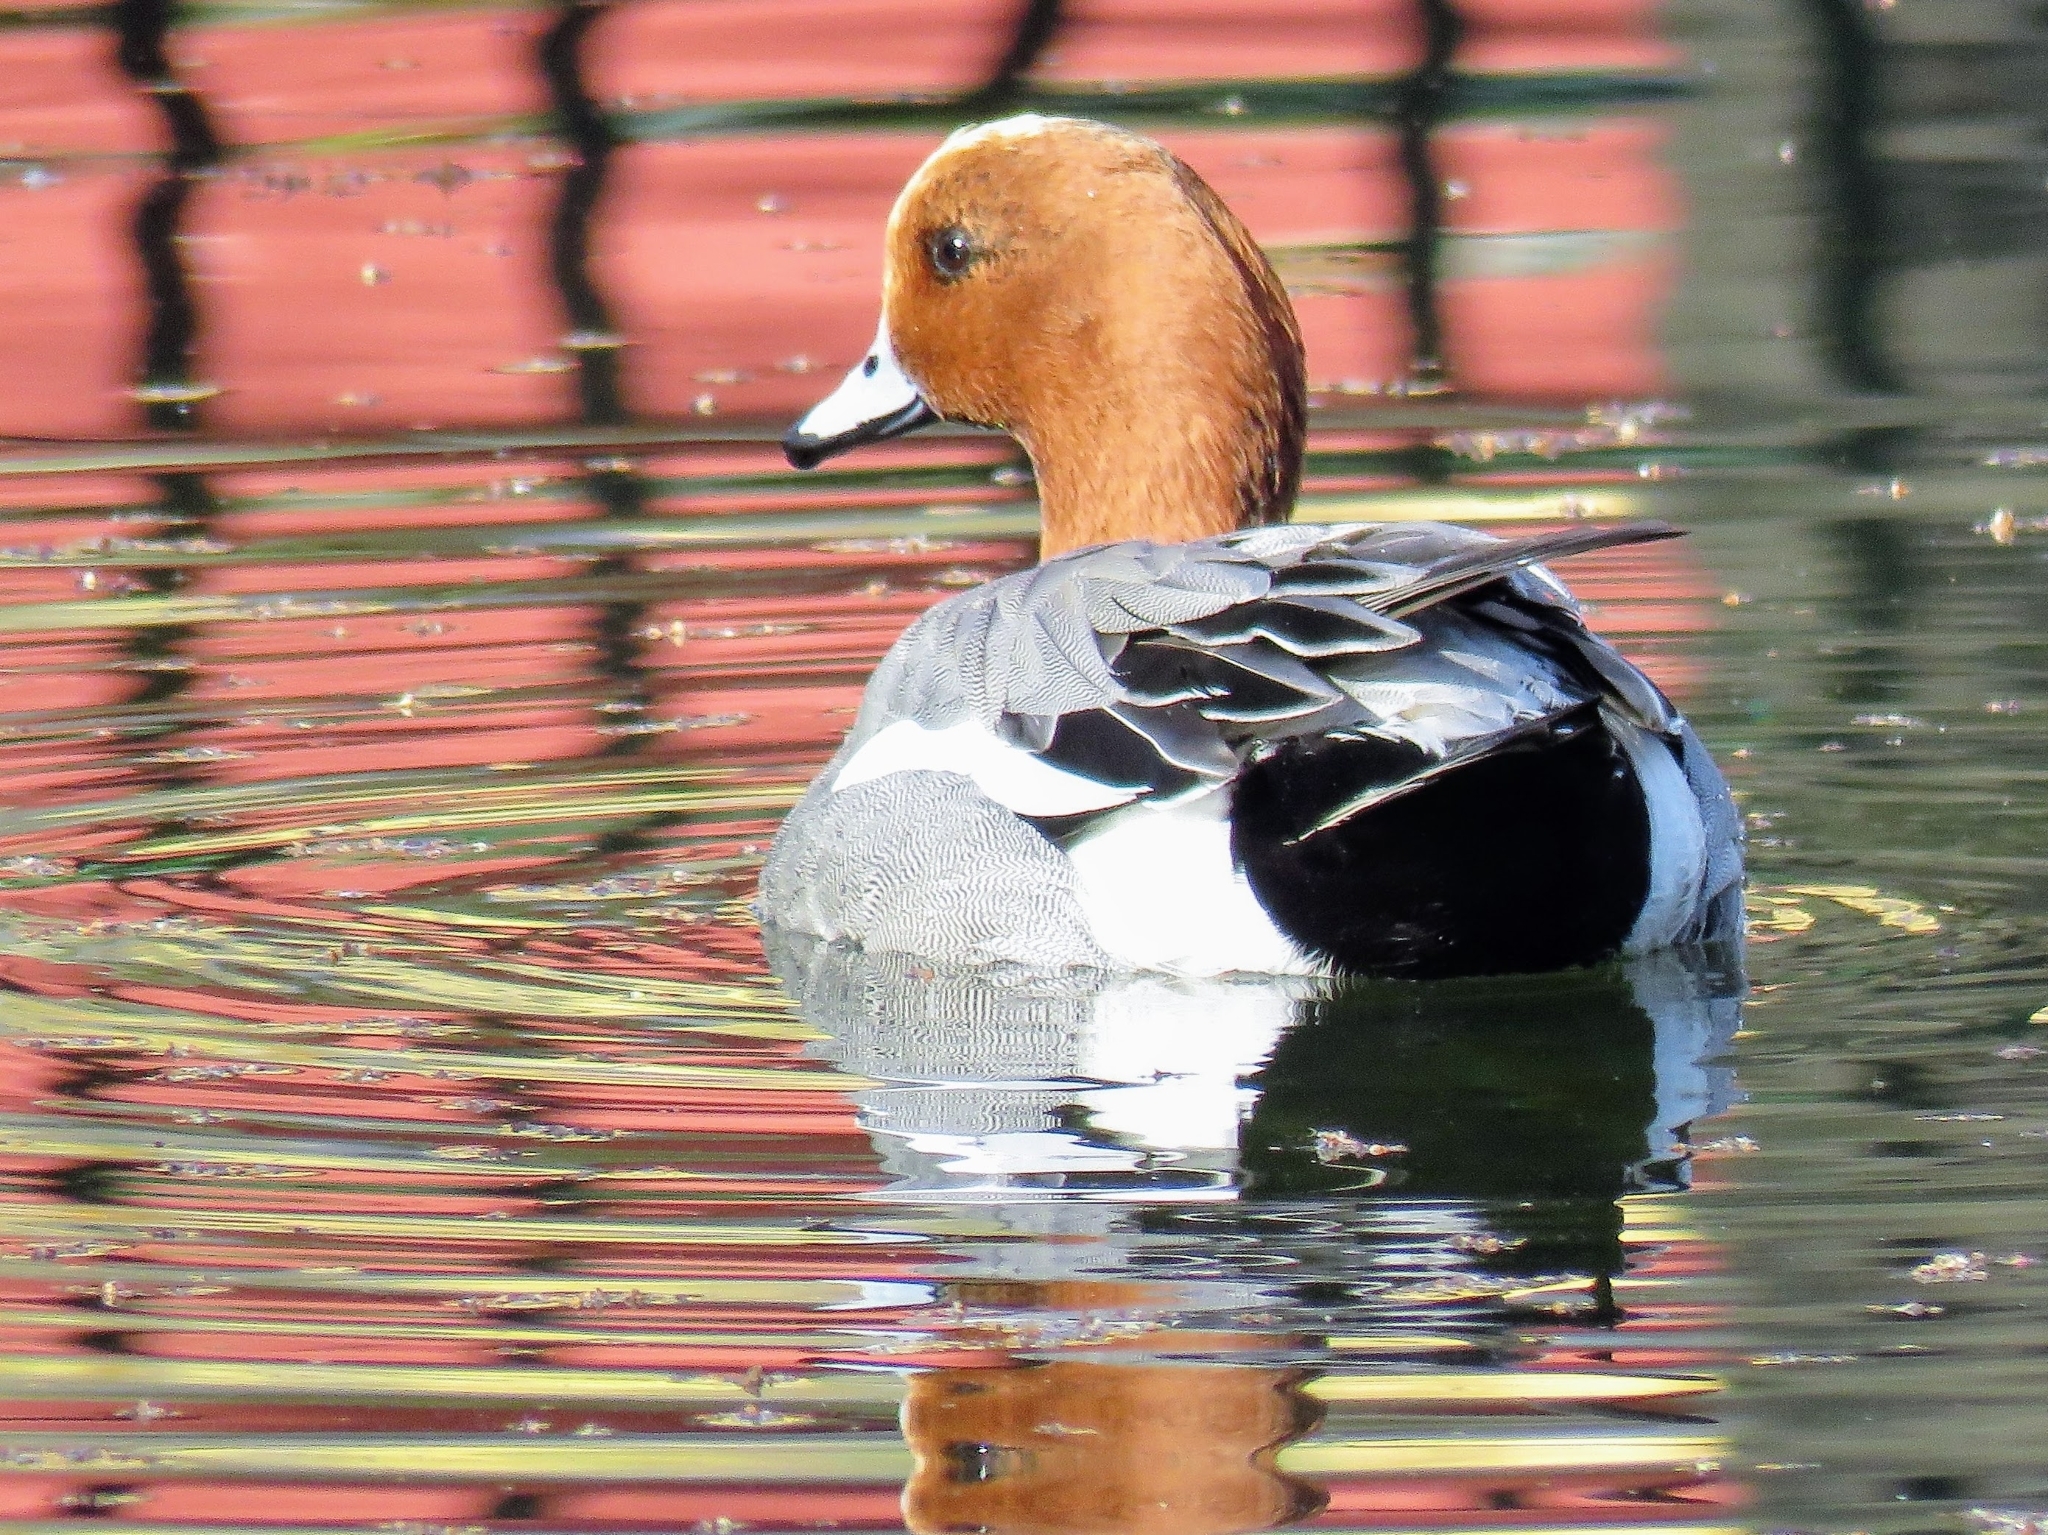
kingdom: Animalia
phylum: Chordata
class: Aves
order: Anseriformes
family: Anatidae
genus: Mareca
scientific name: Mareca penelope
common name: Eurasian wigeon
